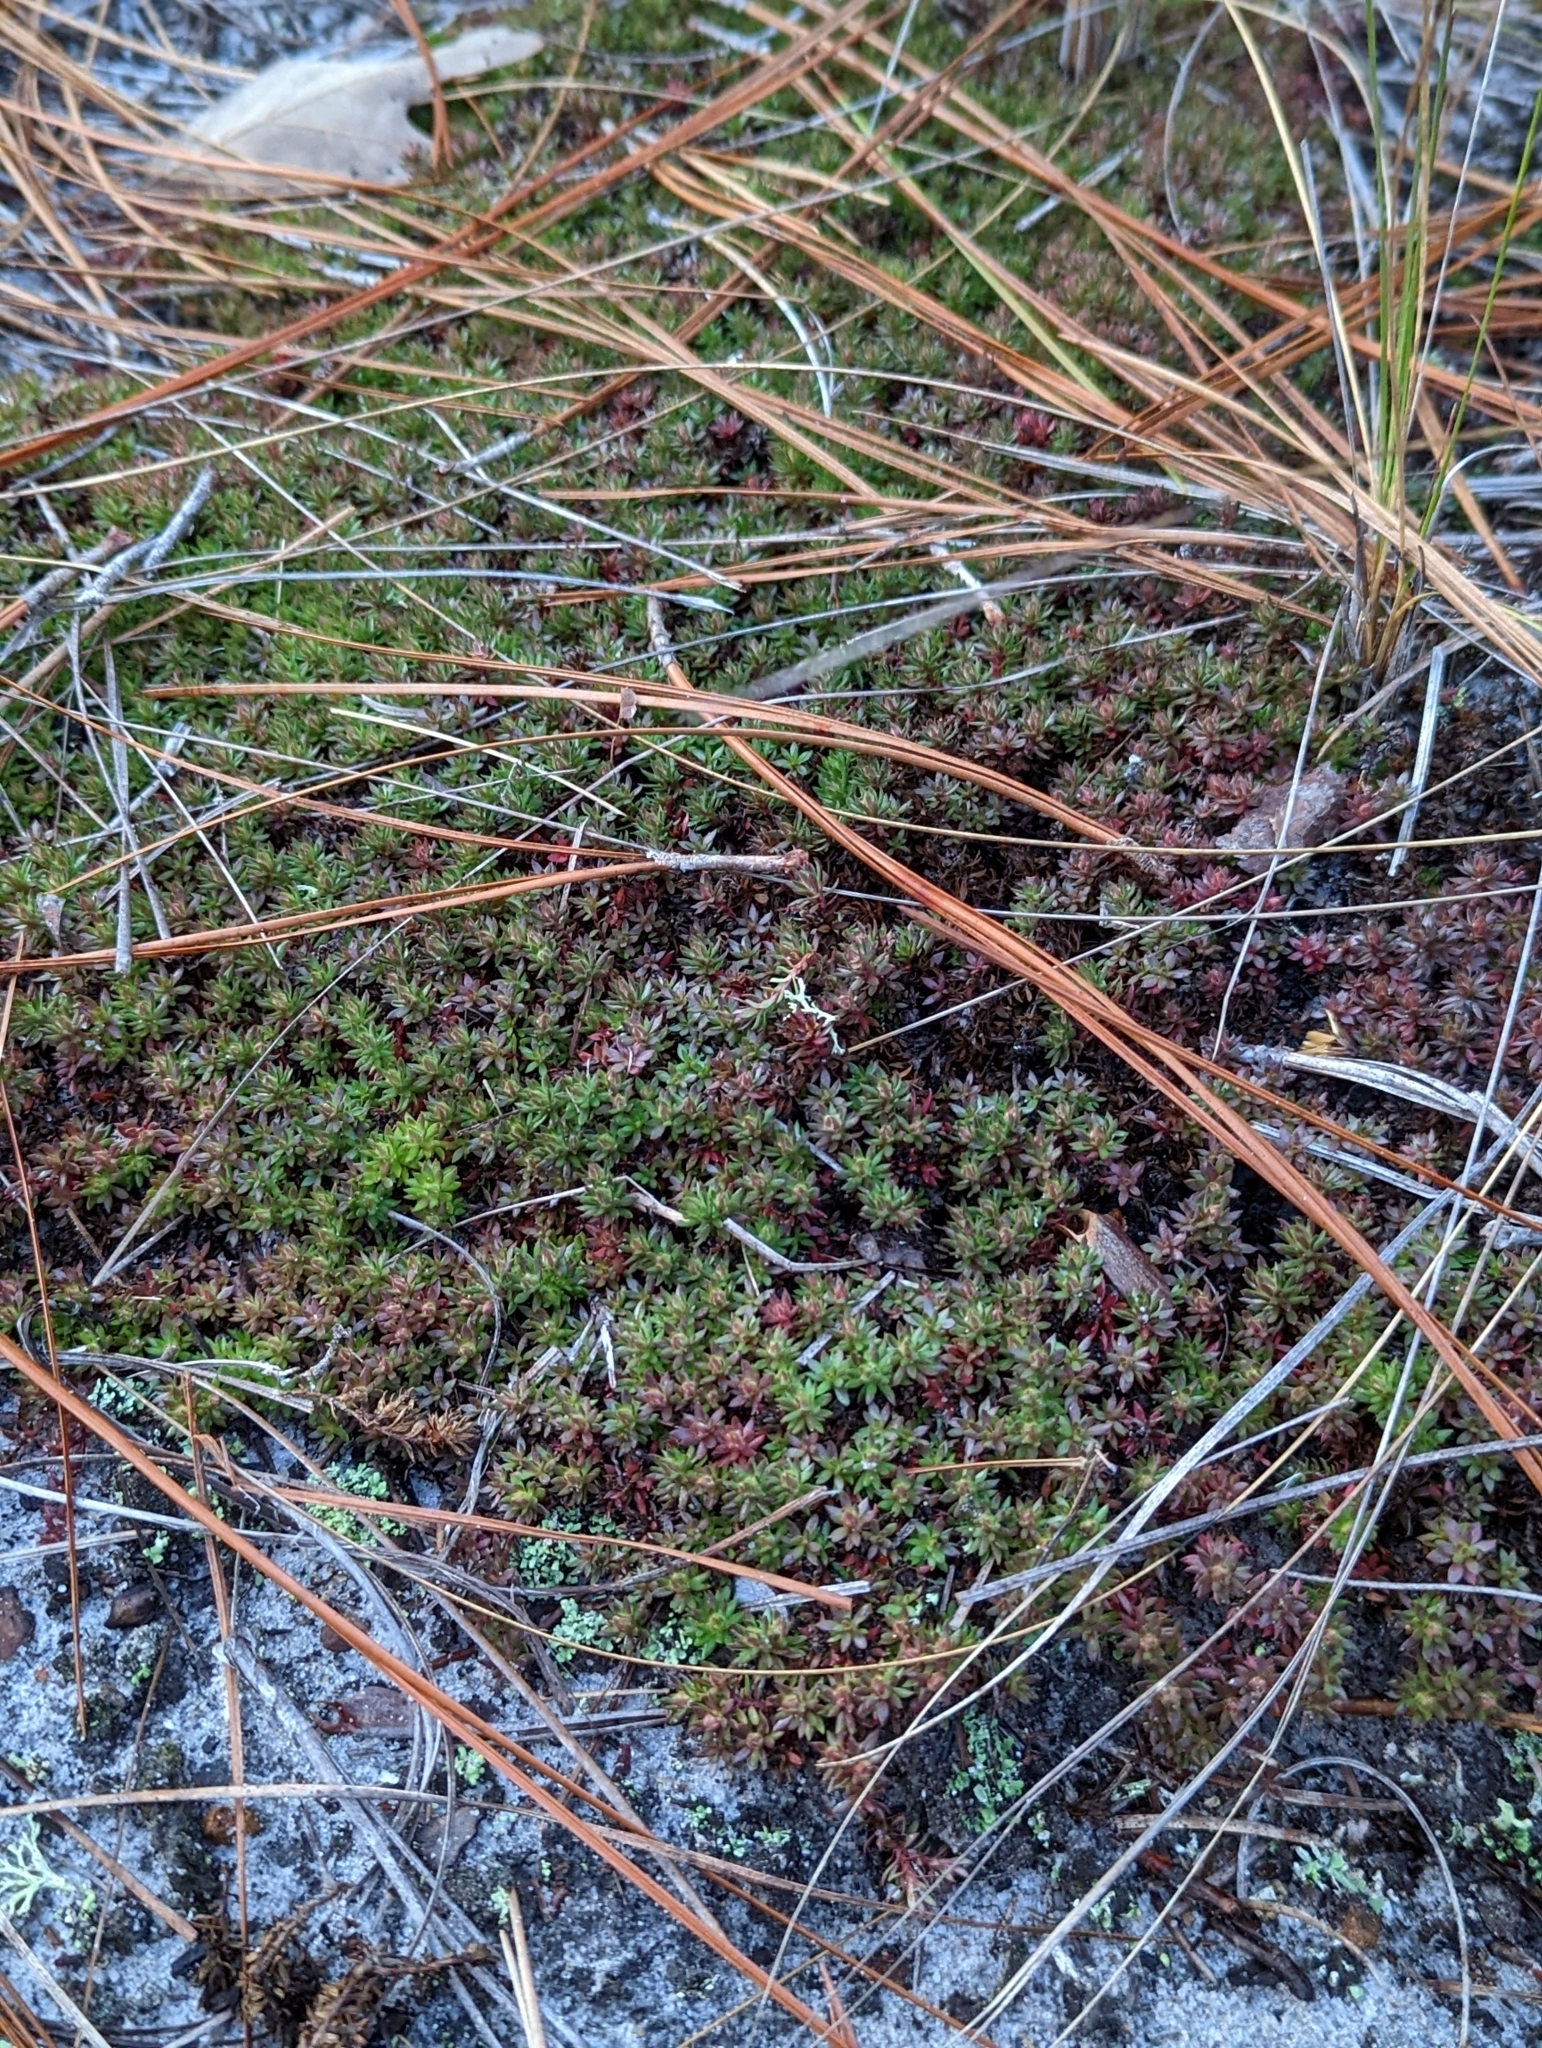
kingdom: Plantae
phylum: Tracheophyta
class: Magnoliopsida
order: Ericales
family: Diapensiaceae
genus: Pyxidanthera
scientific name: Pyxidanthera barbulata
